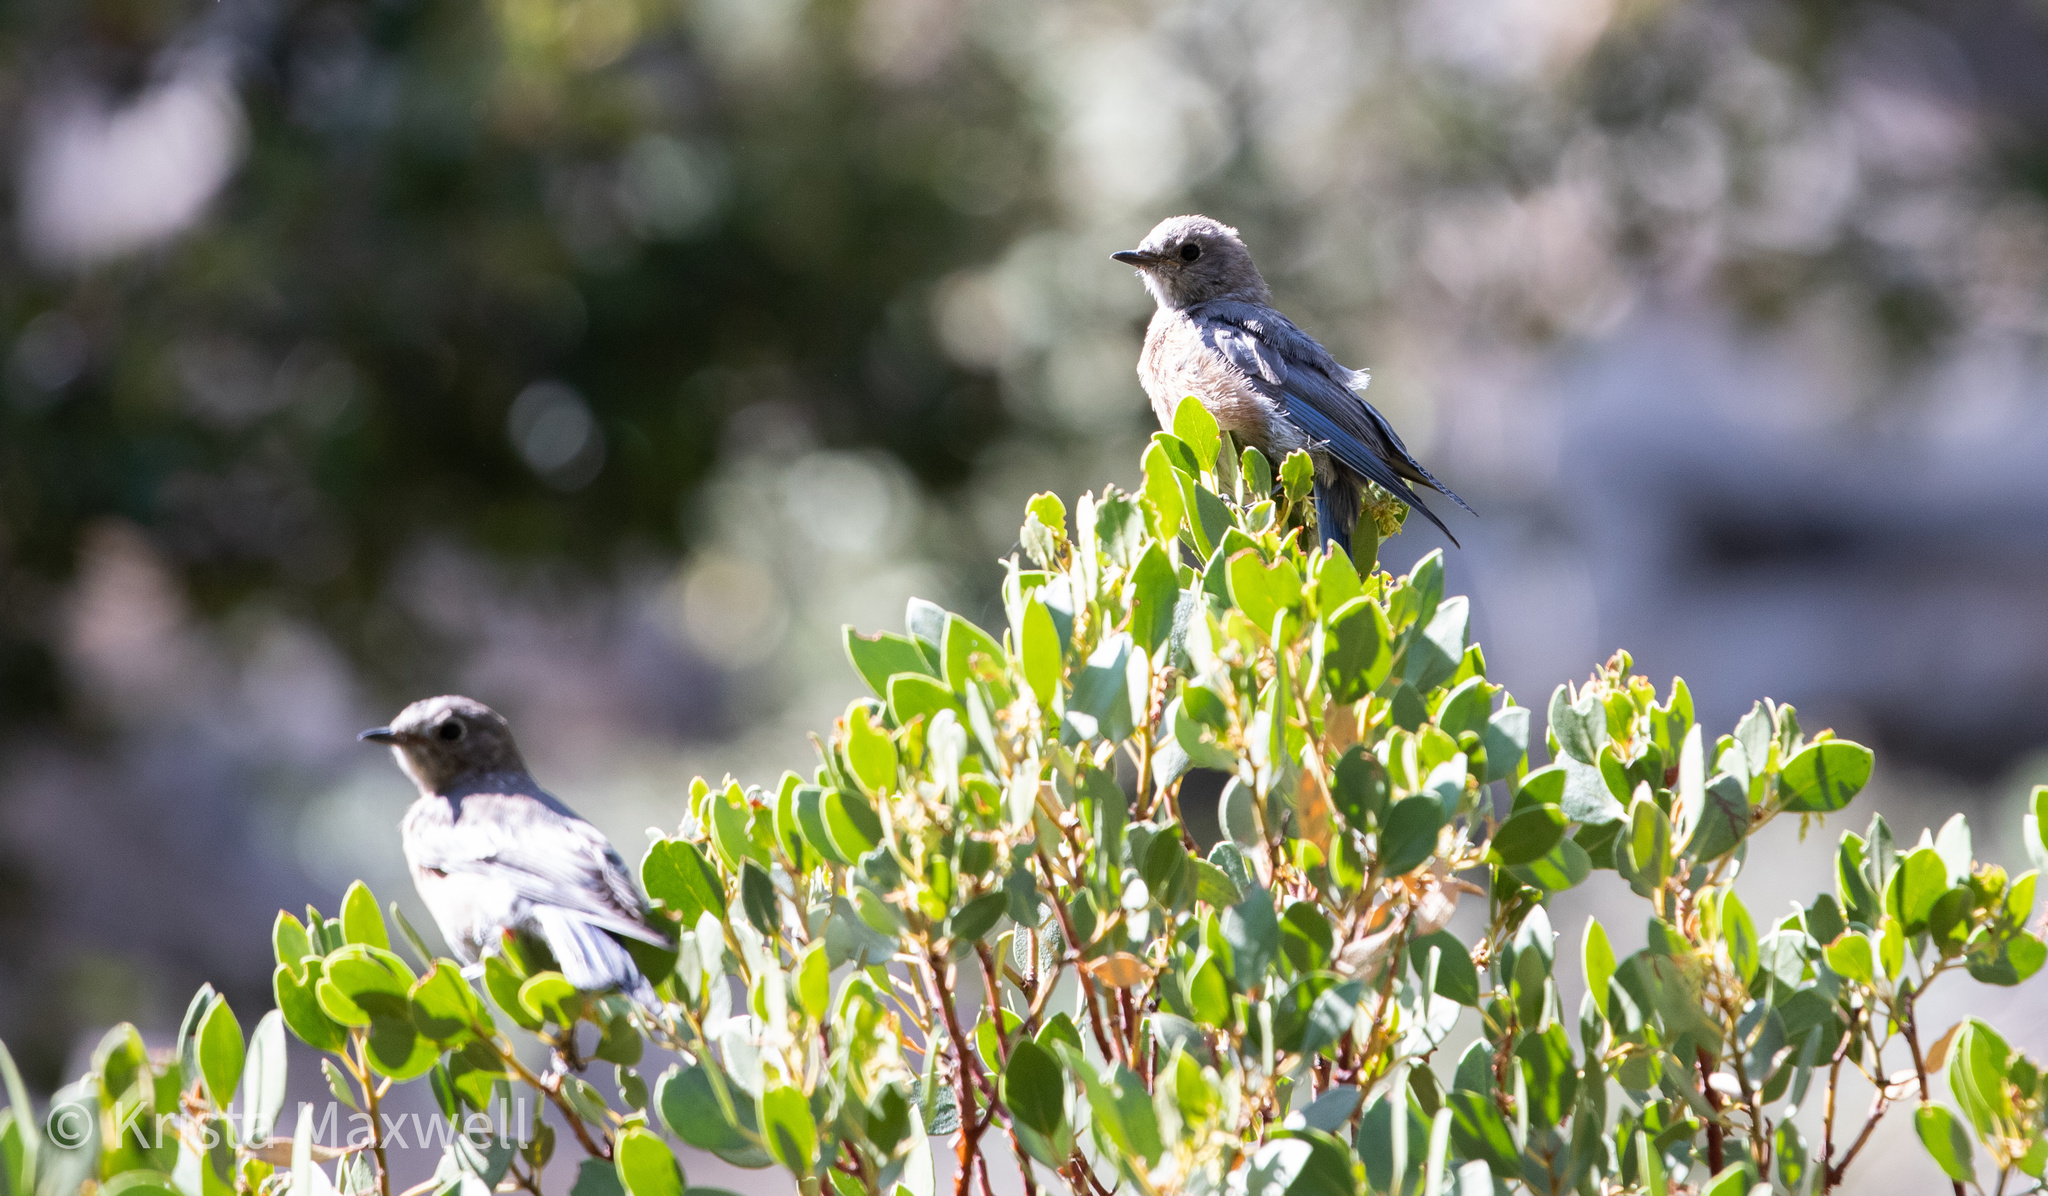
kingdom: Animalia
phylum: Chordata
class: Aves
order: Passeriformes
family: Turdidae
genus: Sialia
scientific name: Sialia mexicana
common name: Western bluebird
